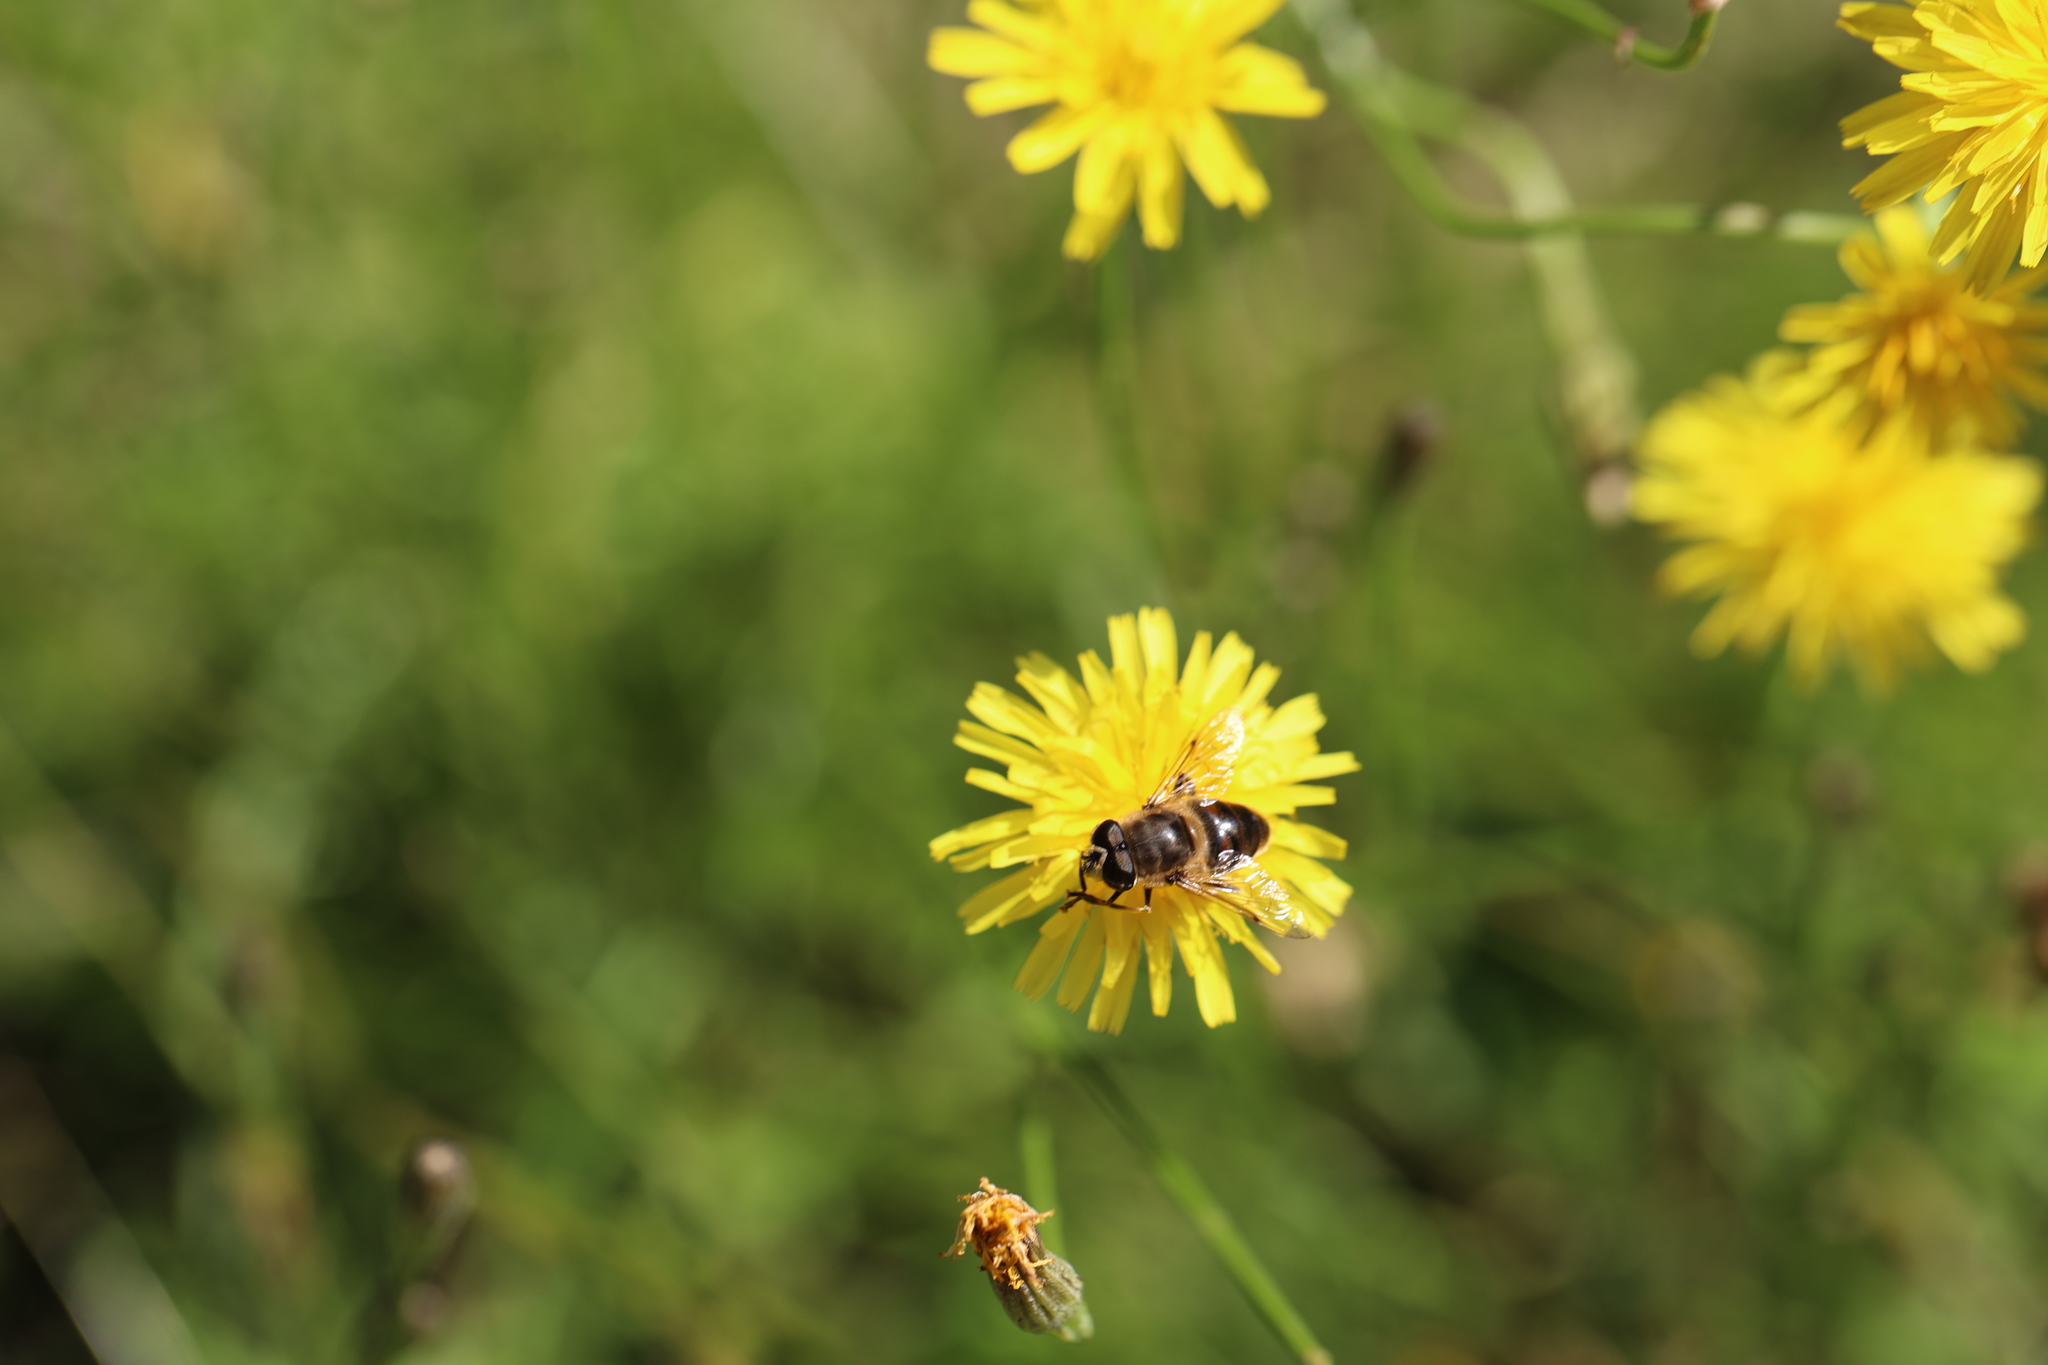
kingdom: Animalia
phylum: Arthropoda
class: Insecta
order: Diptera
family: Syrphidae
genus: Eristalis
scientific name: Eristalis tenax
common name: Drone fly
